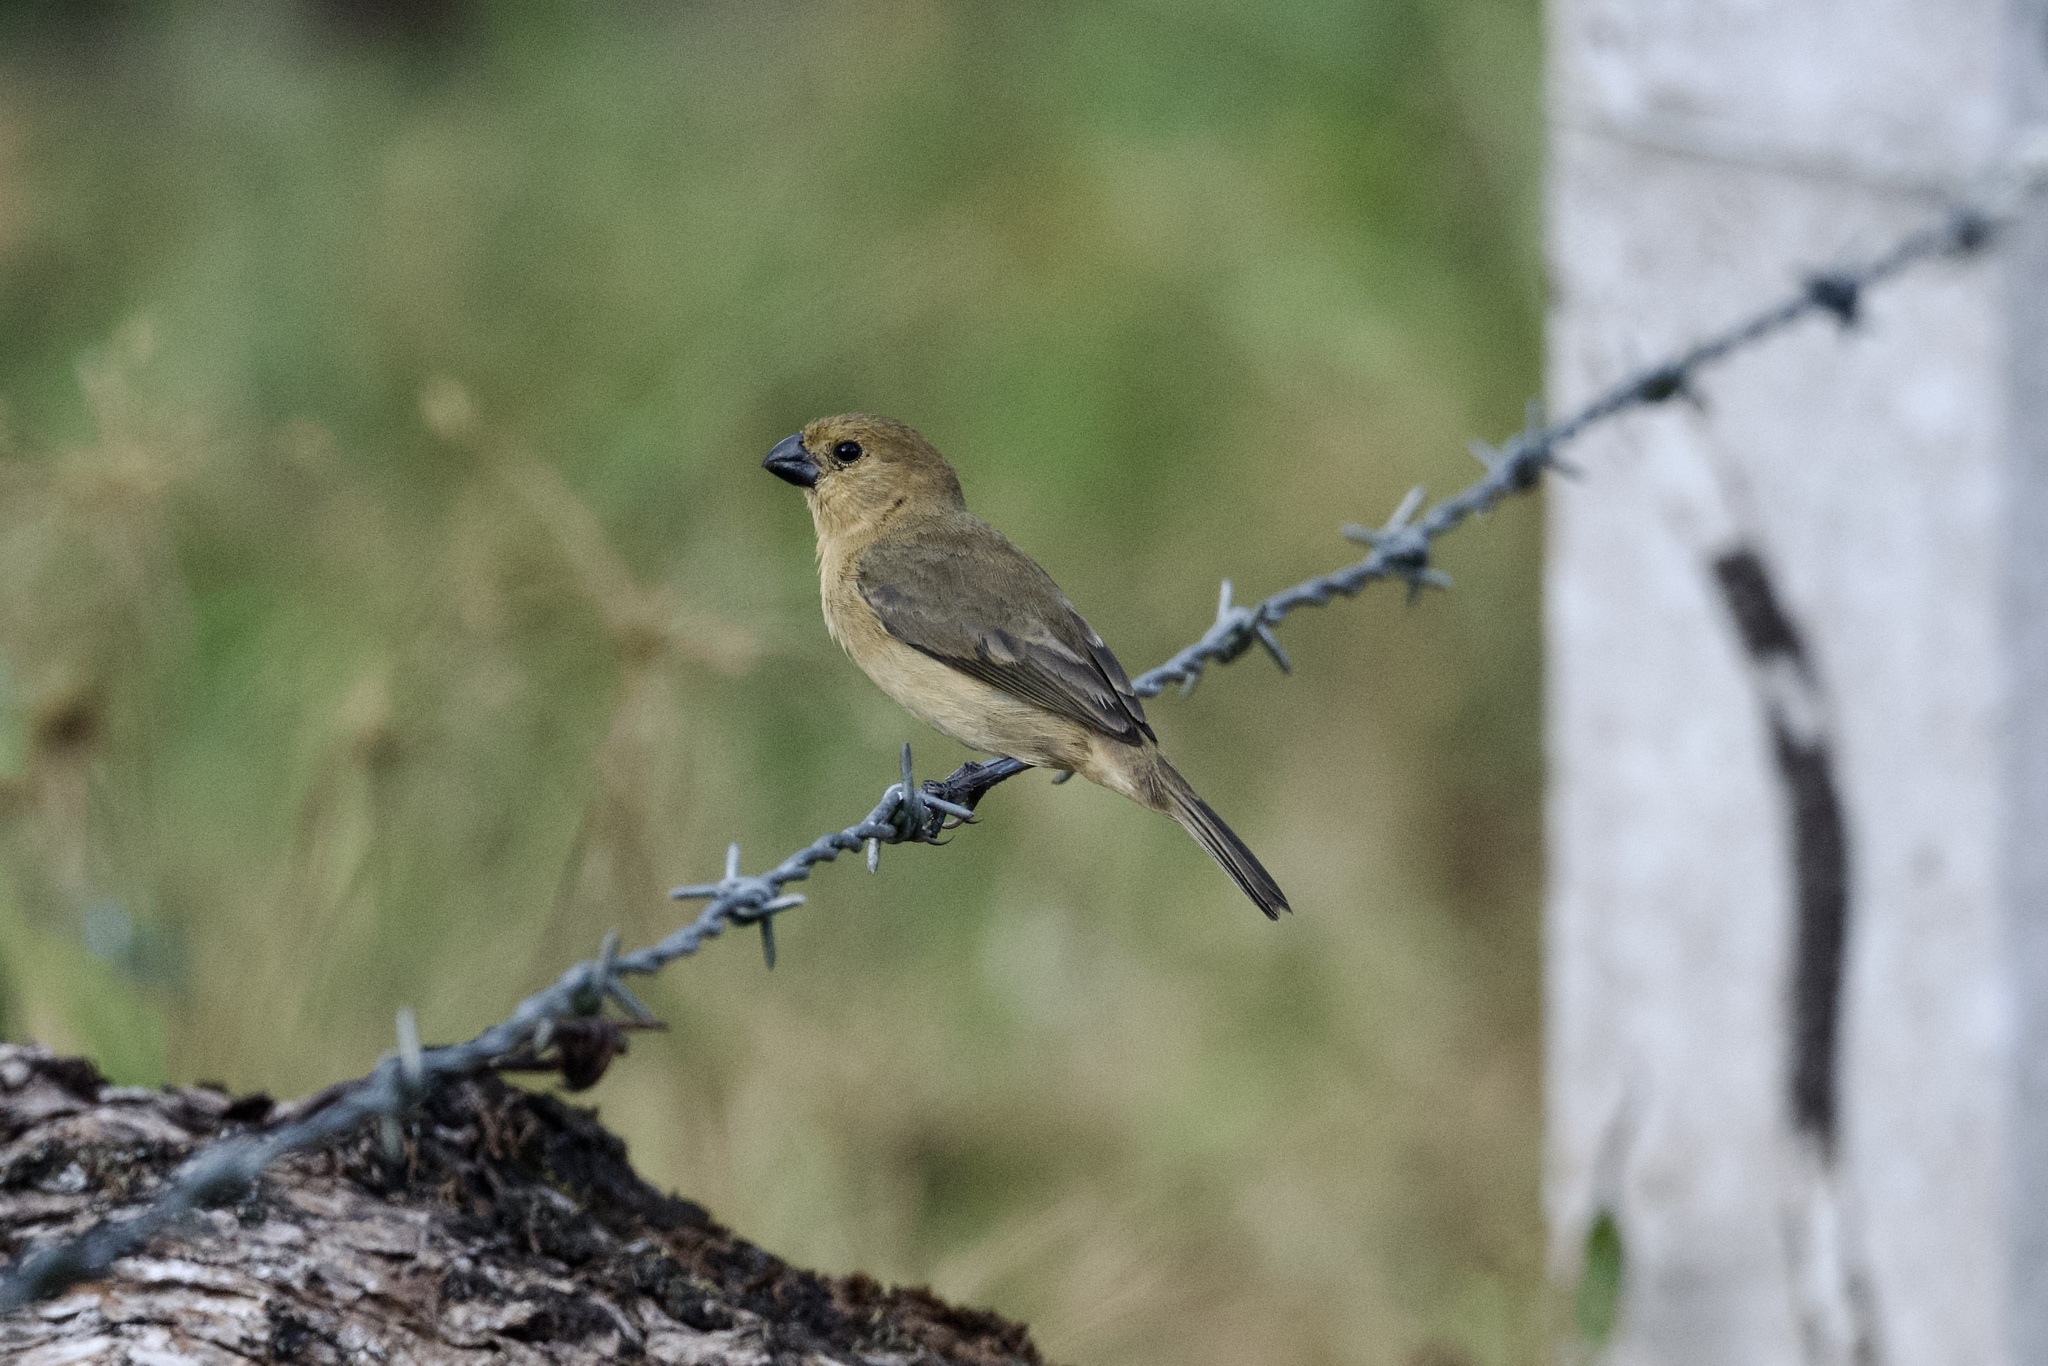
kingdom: Animalia
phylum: Chordata
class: Aves
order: Passeriformes
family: Thraupidae
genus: Sporophila
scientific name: Sporophila intermedia
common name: Grey seedeater
